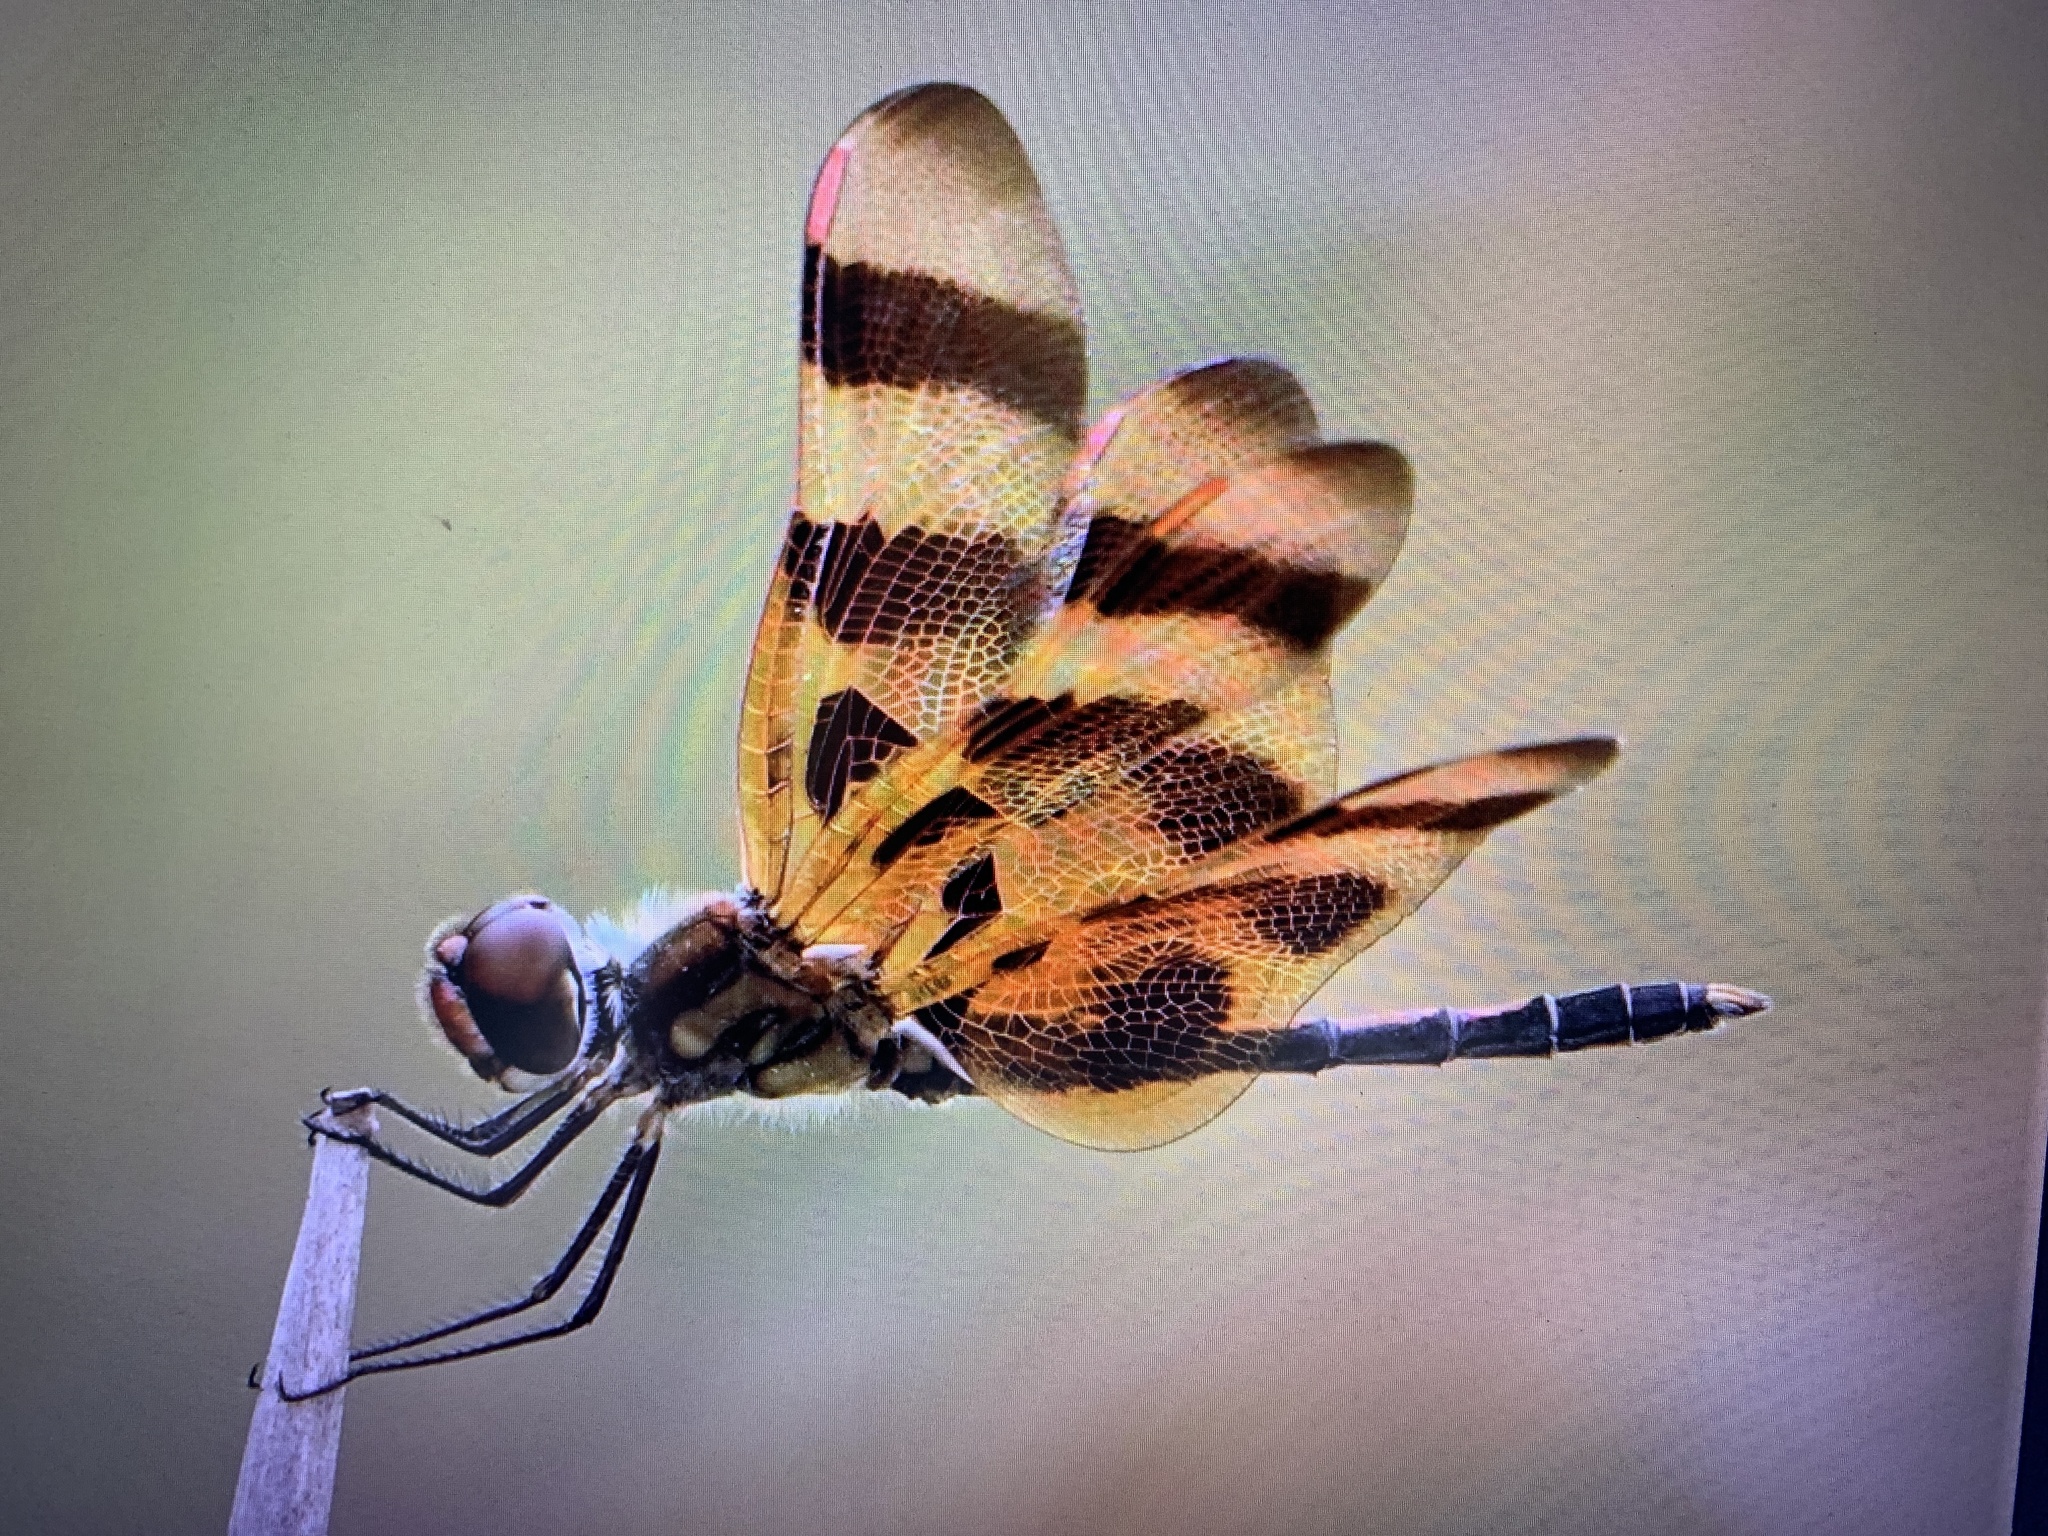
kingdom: Animalia
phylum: Arthropoda
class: Insecta
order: Odonata
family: Libellulidae
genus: Celithemis
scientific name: Celithemis eponina
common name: Halloween pennant
